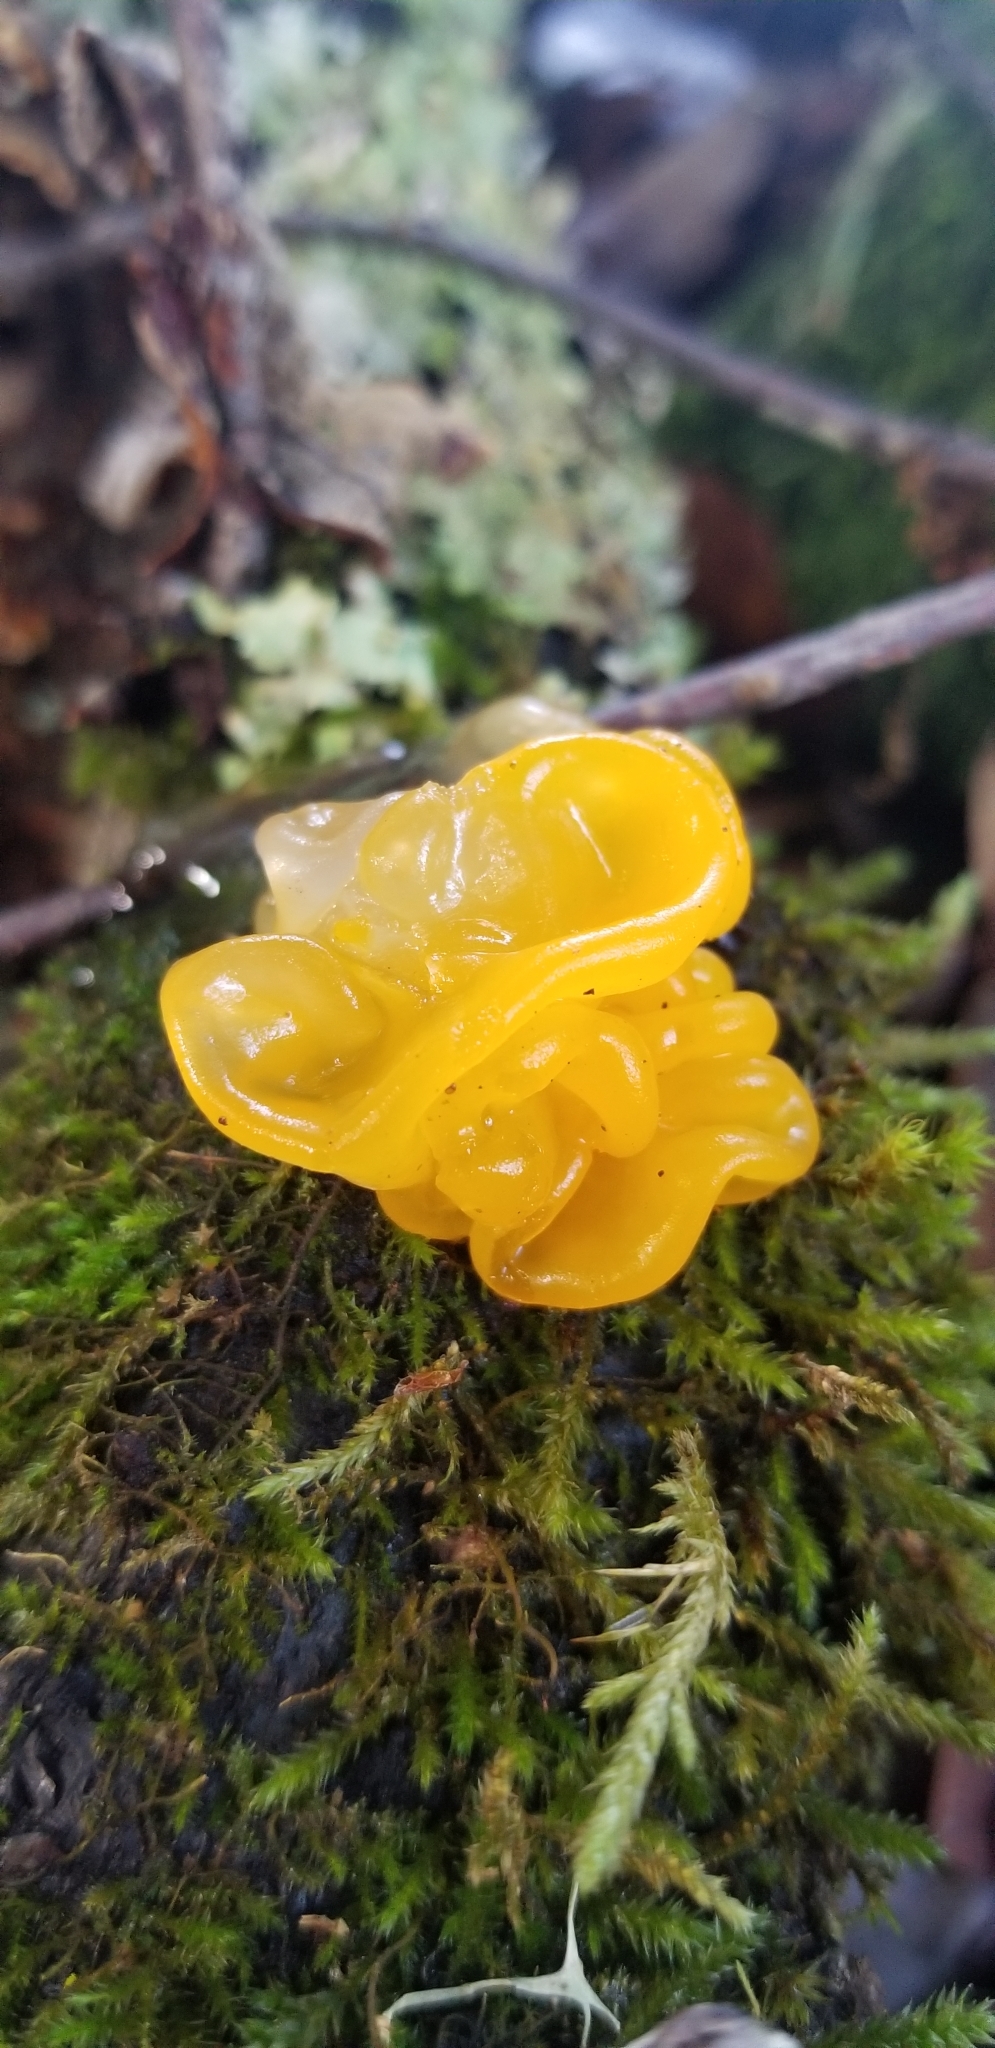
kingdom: Fungi
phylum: Basidiomycota
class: Tremellomycetes
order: Tremellales
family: Tremellaceae
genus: Tremella
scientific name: Tremella mesenterica
